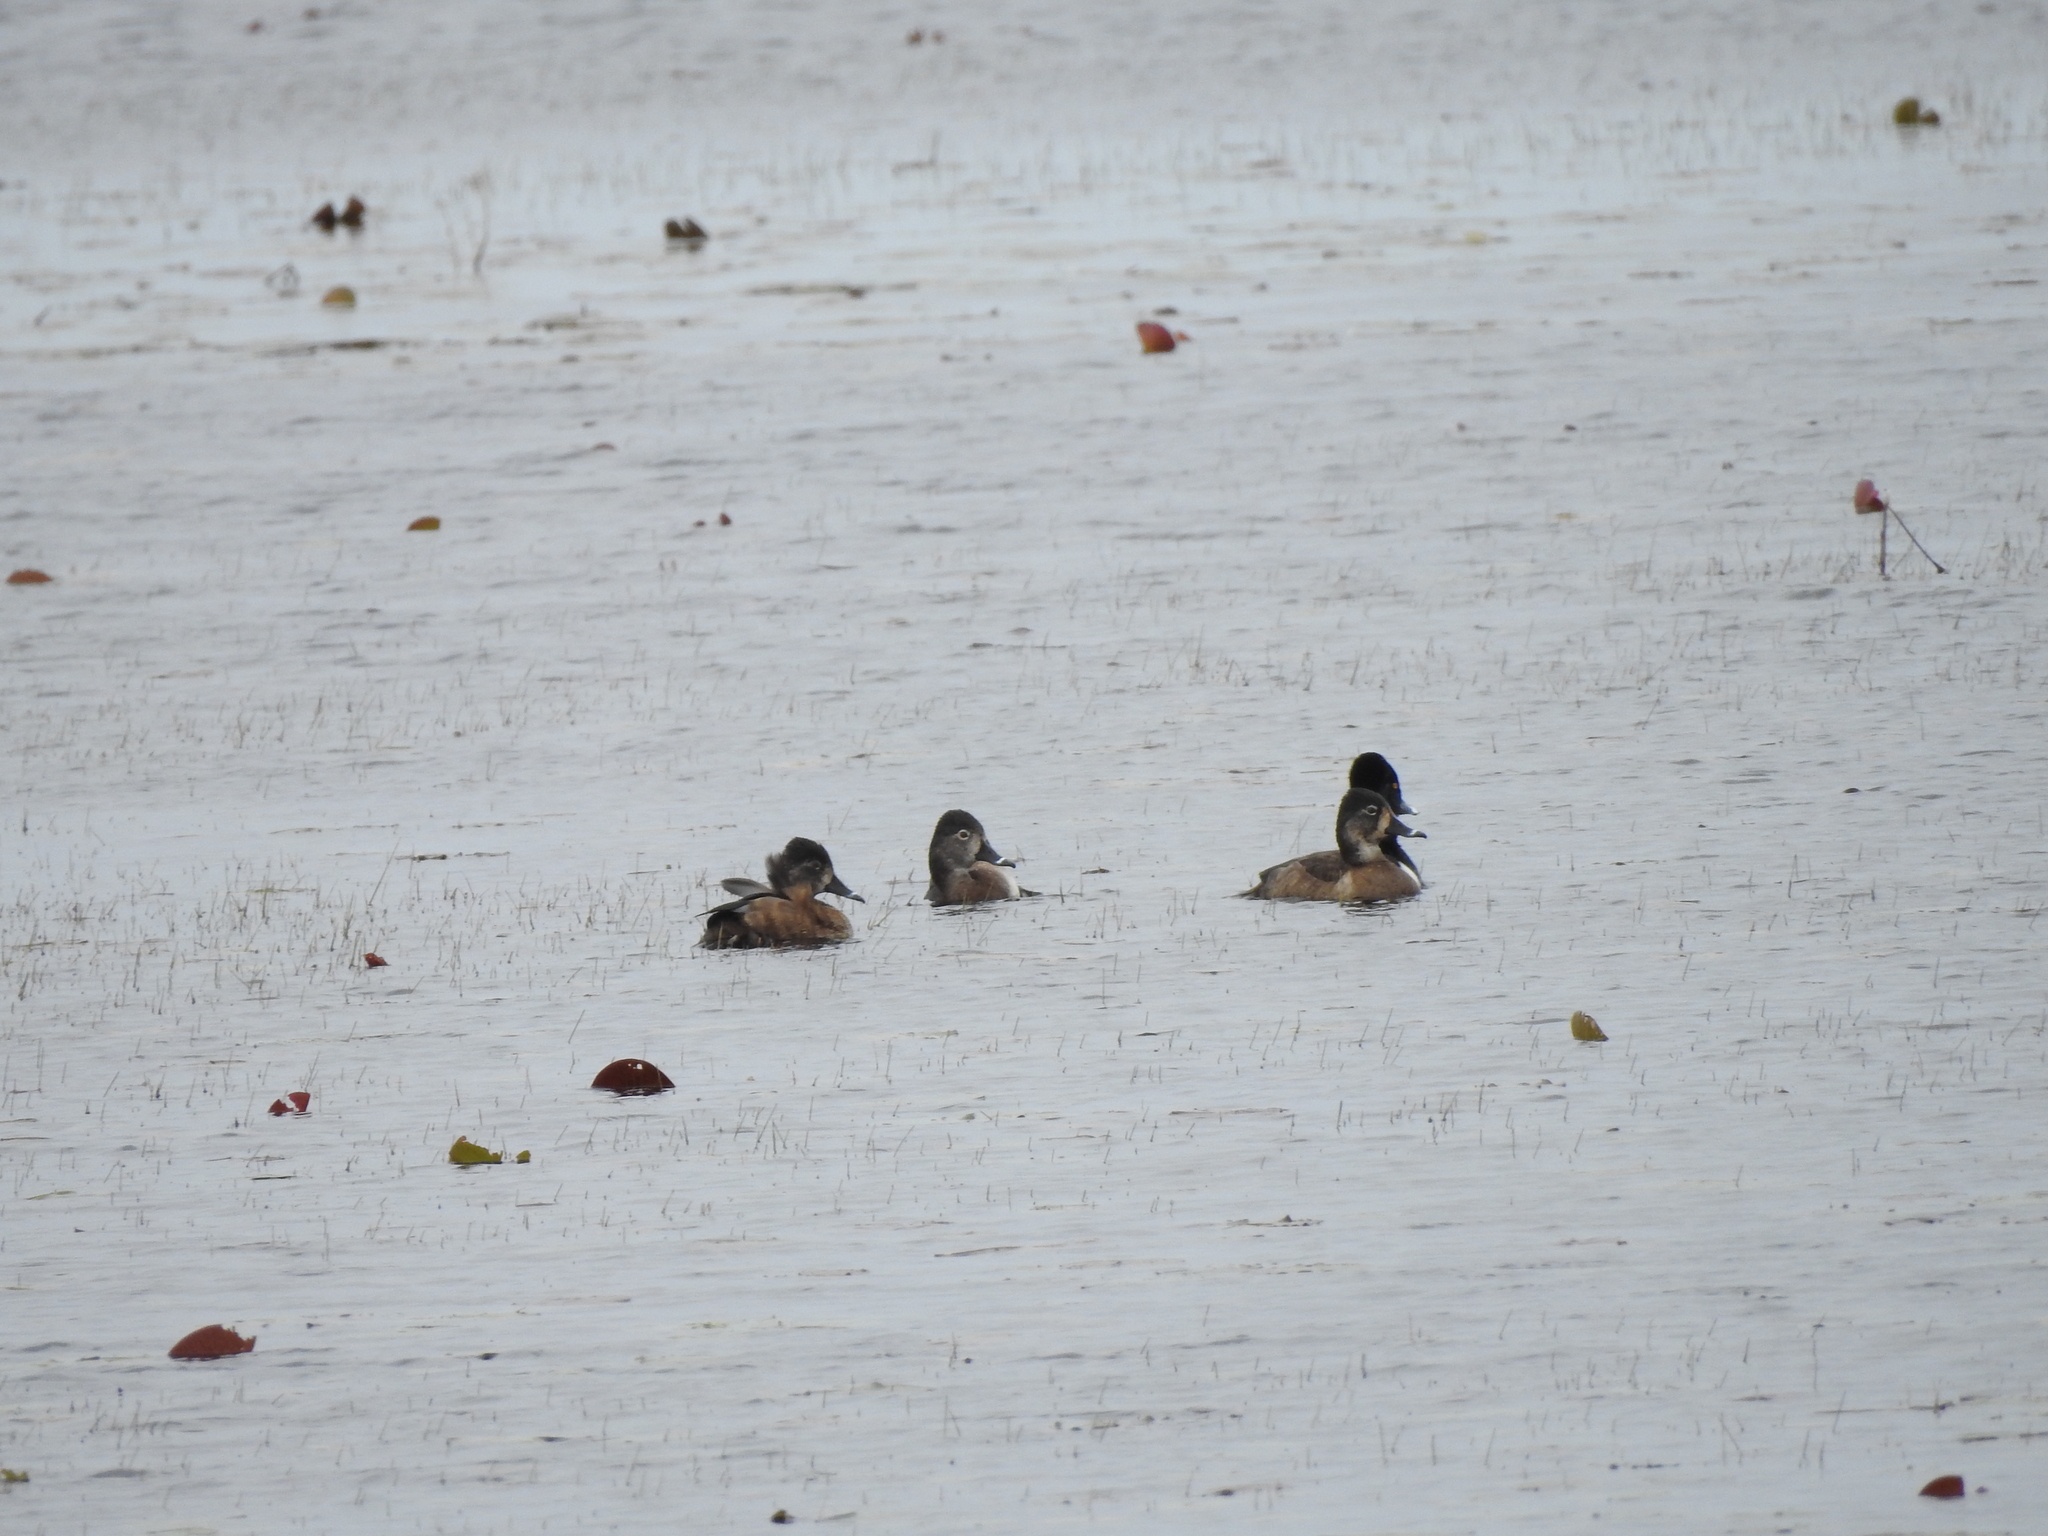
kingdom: Animalia
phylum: Chordata
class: Aves
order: Anseriformes
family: Anatidae
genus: Aythya
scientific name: Aythya collaris
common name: Ring-necked duck
